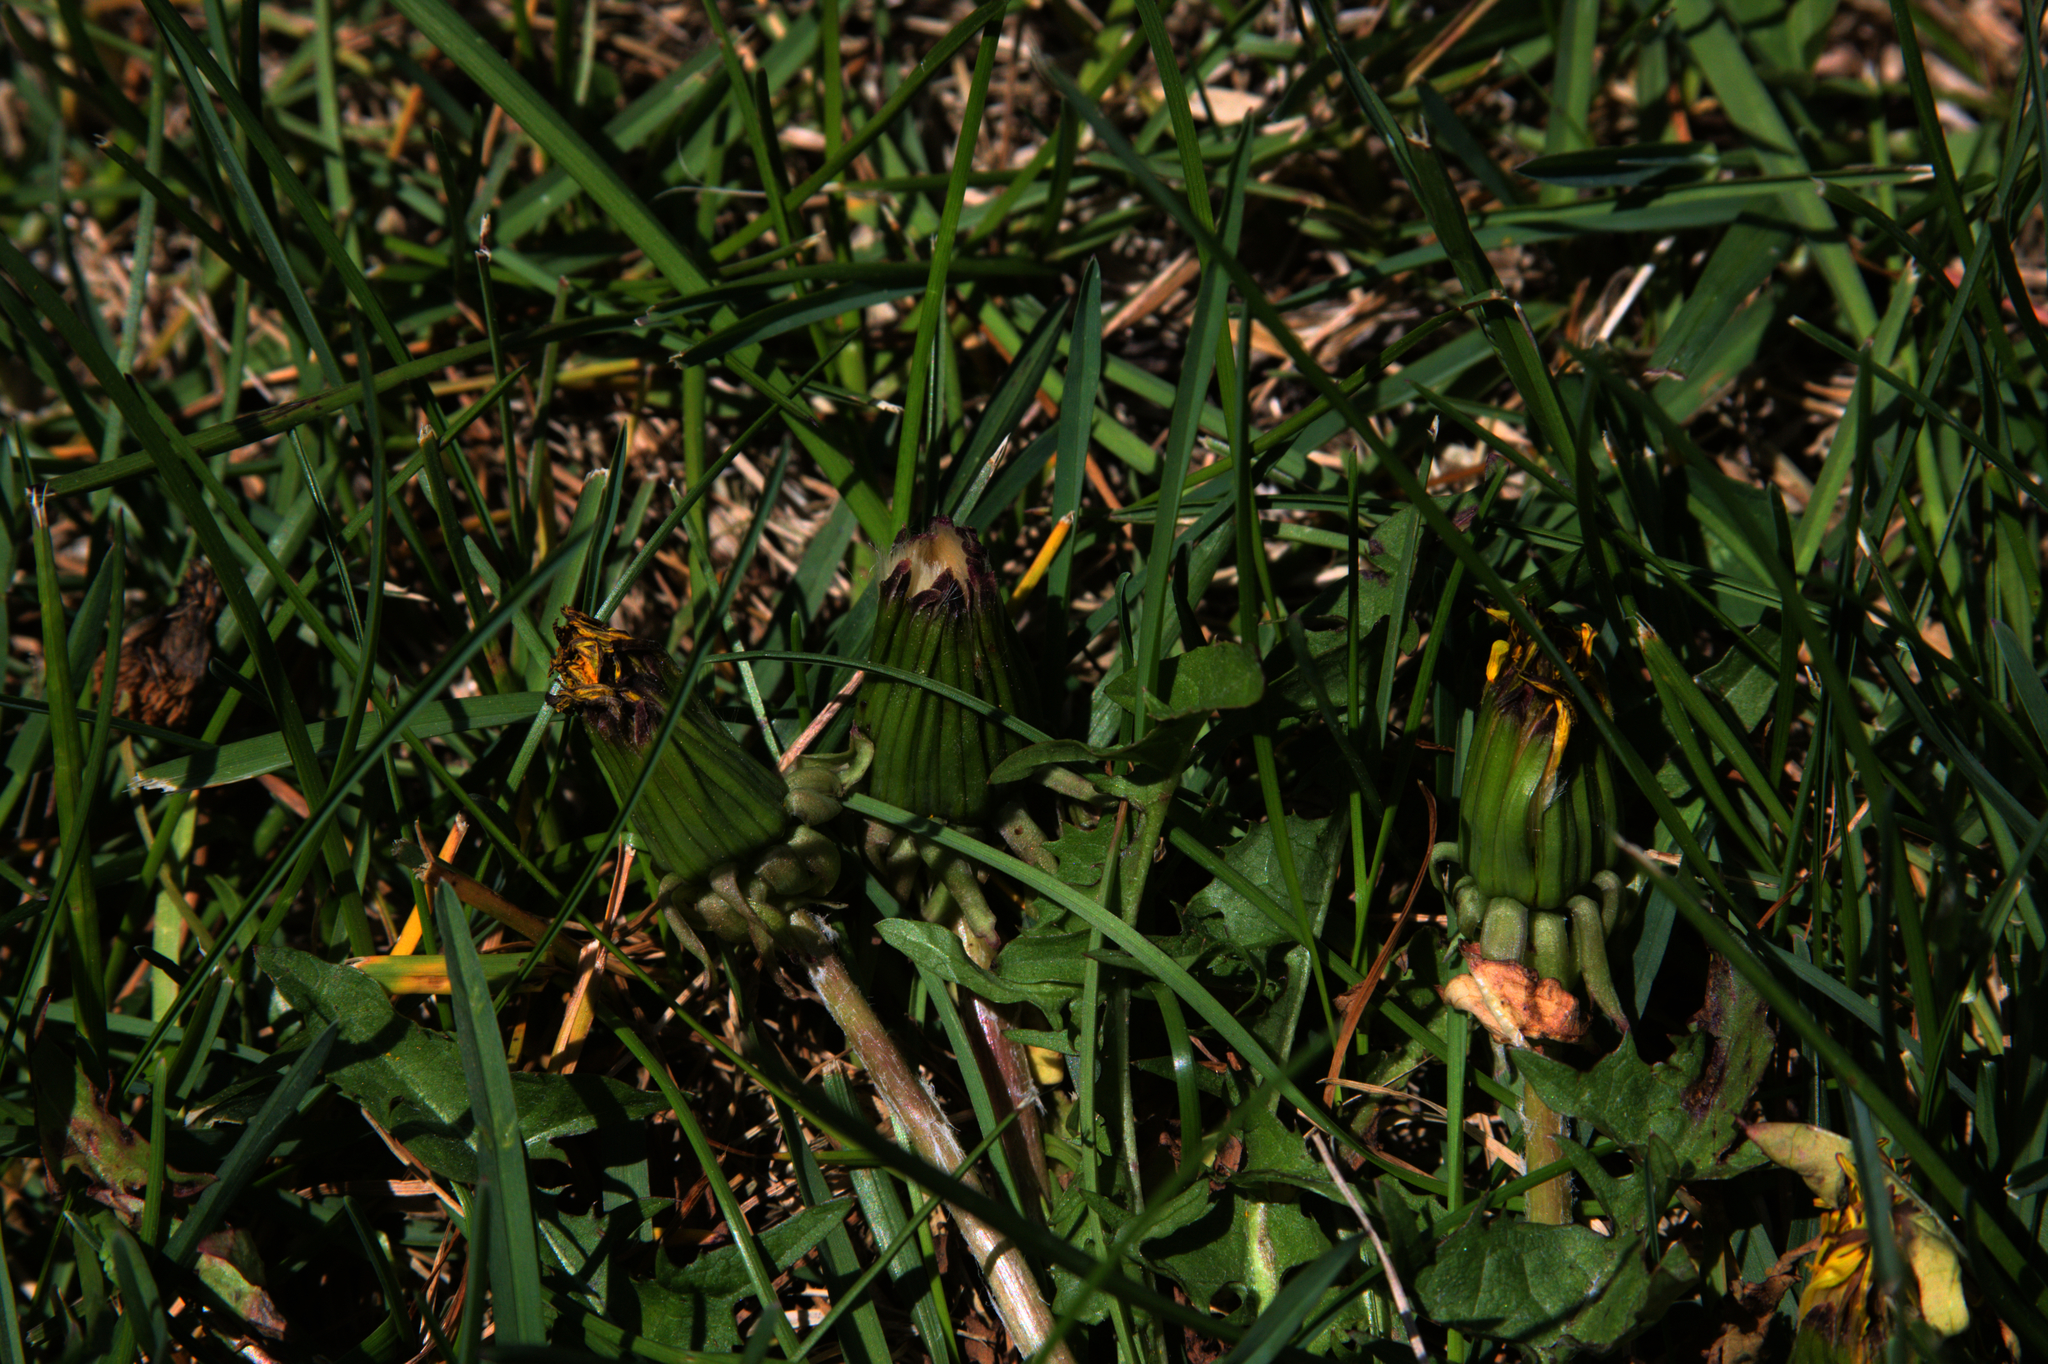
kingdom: Plantae
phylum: Tracheophyta
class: Magnoliopsida
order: Asterales
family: Asteraceae
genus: Taraxacum
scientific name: Taraxacum erythrospermum
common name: Rock dandelion
